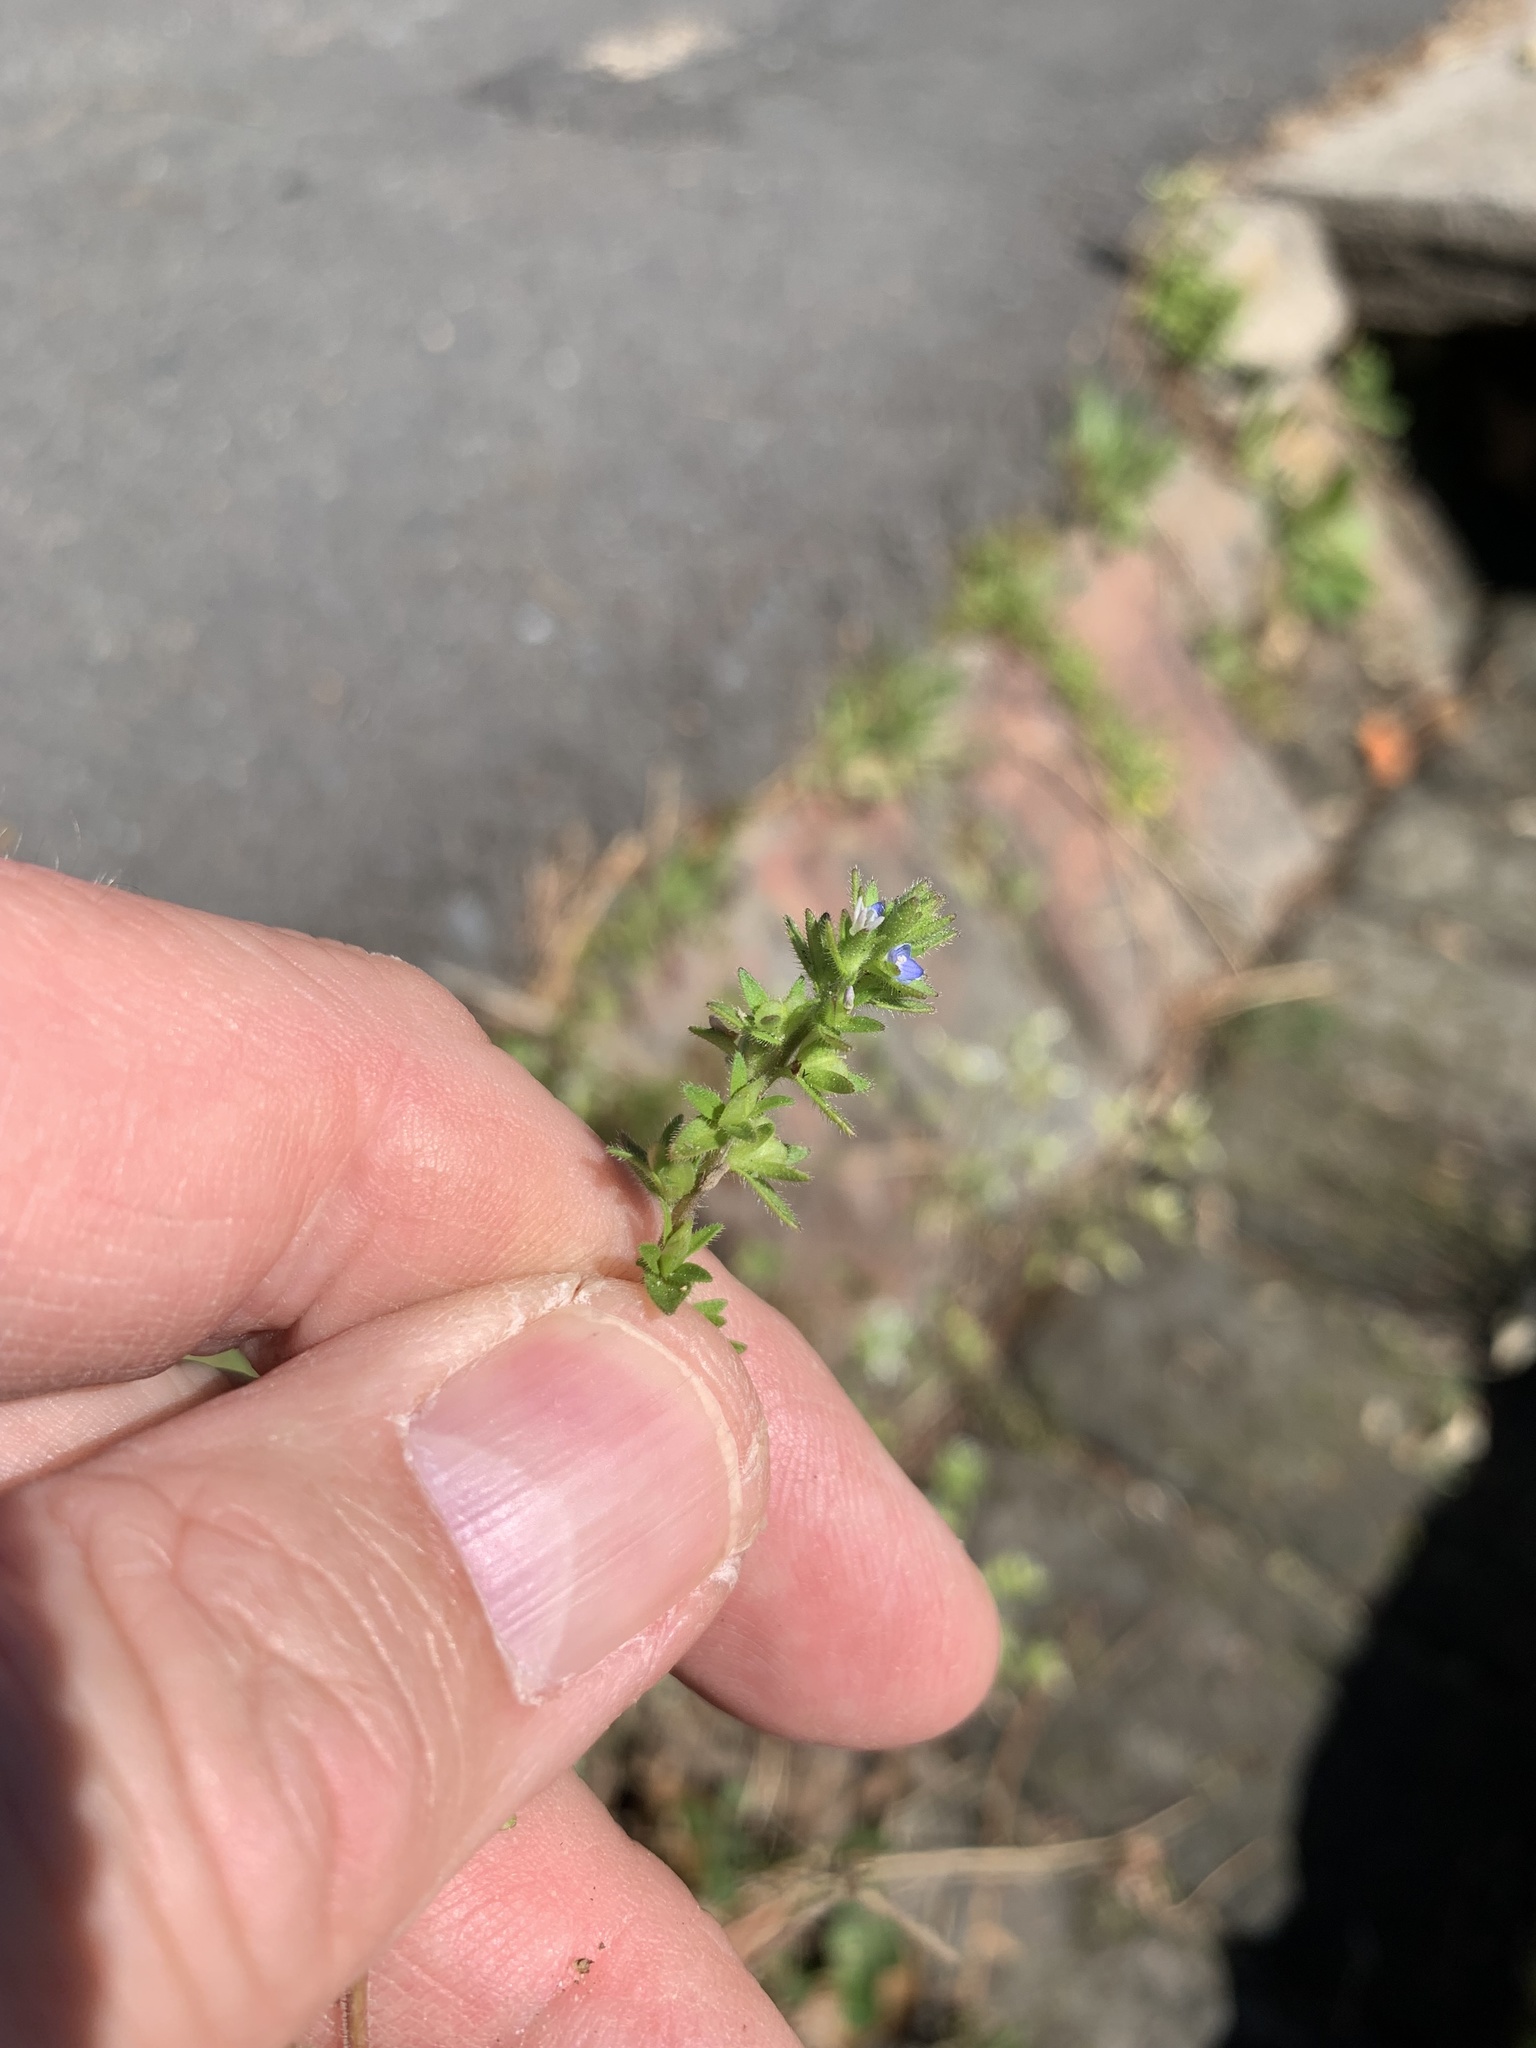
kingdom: Plantae
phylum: Tracheophyta
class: Magnoliopsida
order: Lamiales
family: Plantaginaceae
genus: Veronica
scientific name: Veronica arvensis
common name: Corn speedwell
